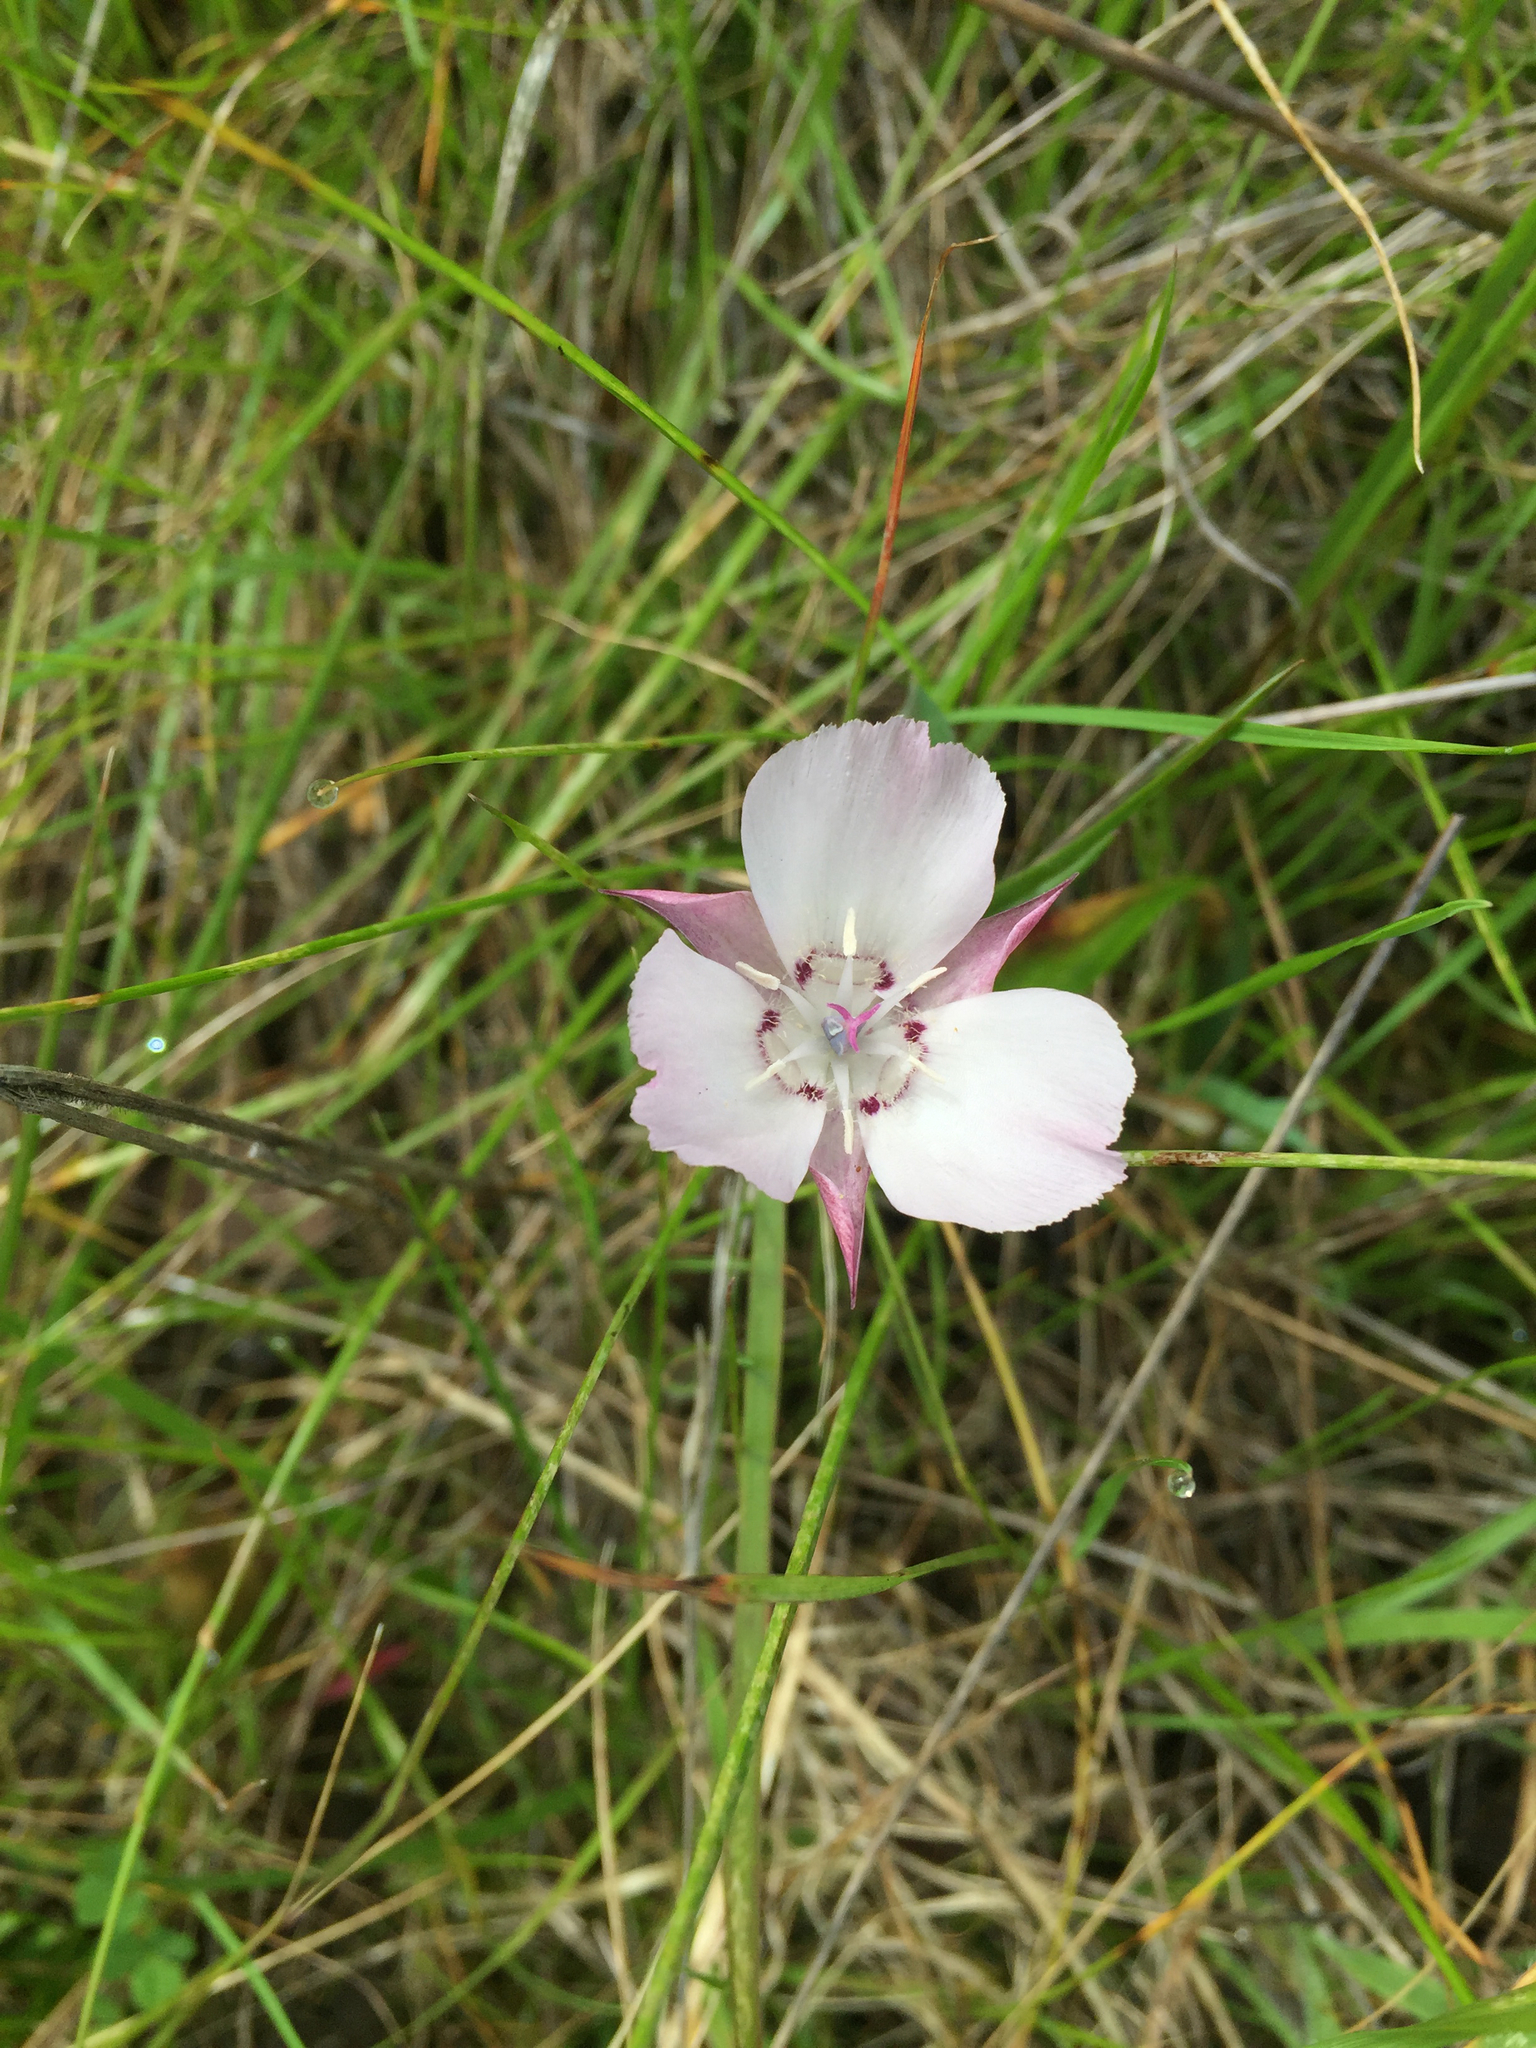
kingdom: Plantae
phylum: Tracheophyta
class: Liliopsida
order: Liliales
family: Liliaceae
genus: Calochortus
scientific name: Calochortus umbellatus
